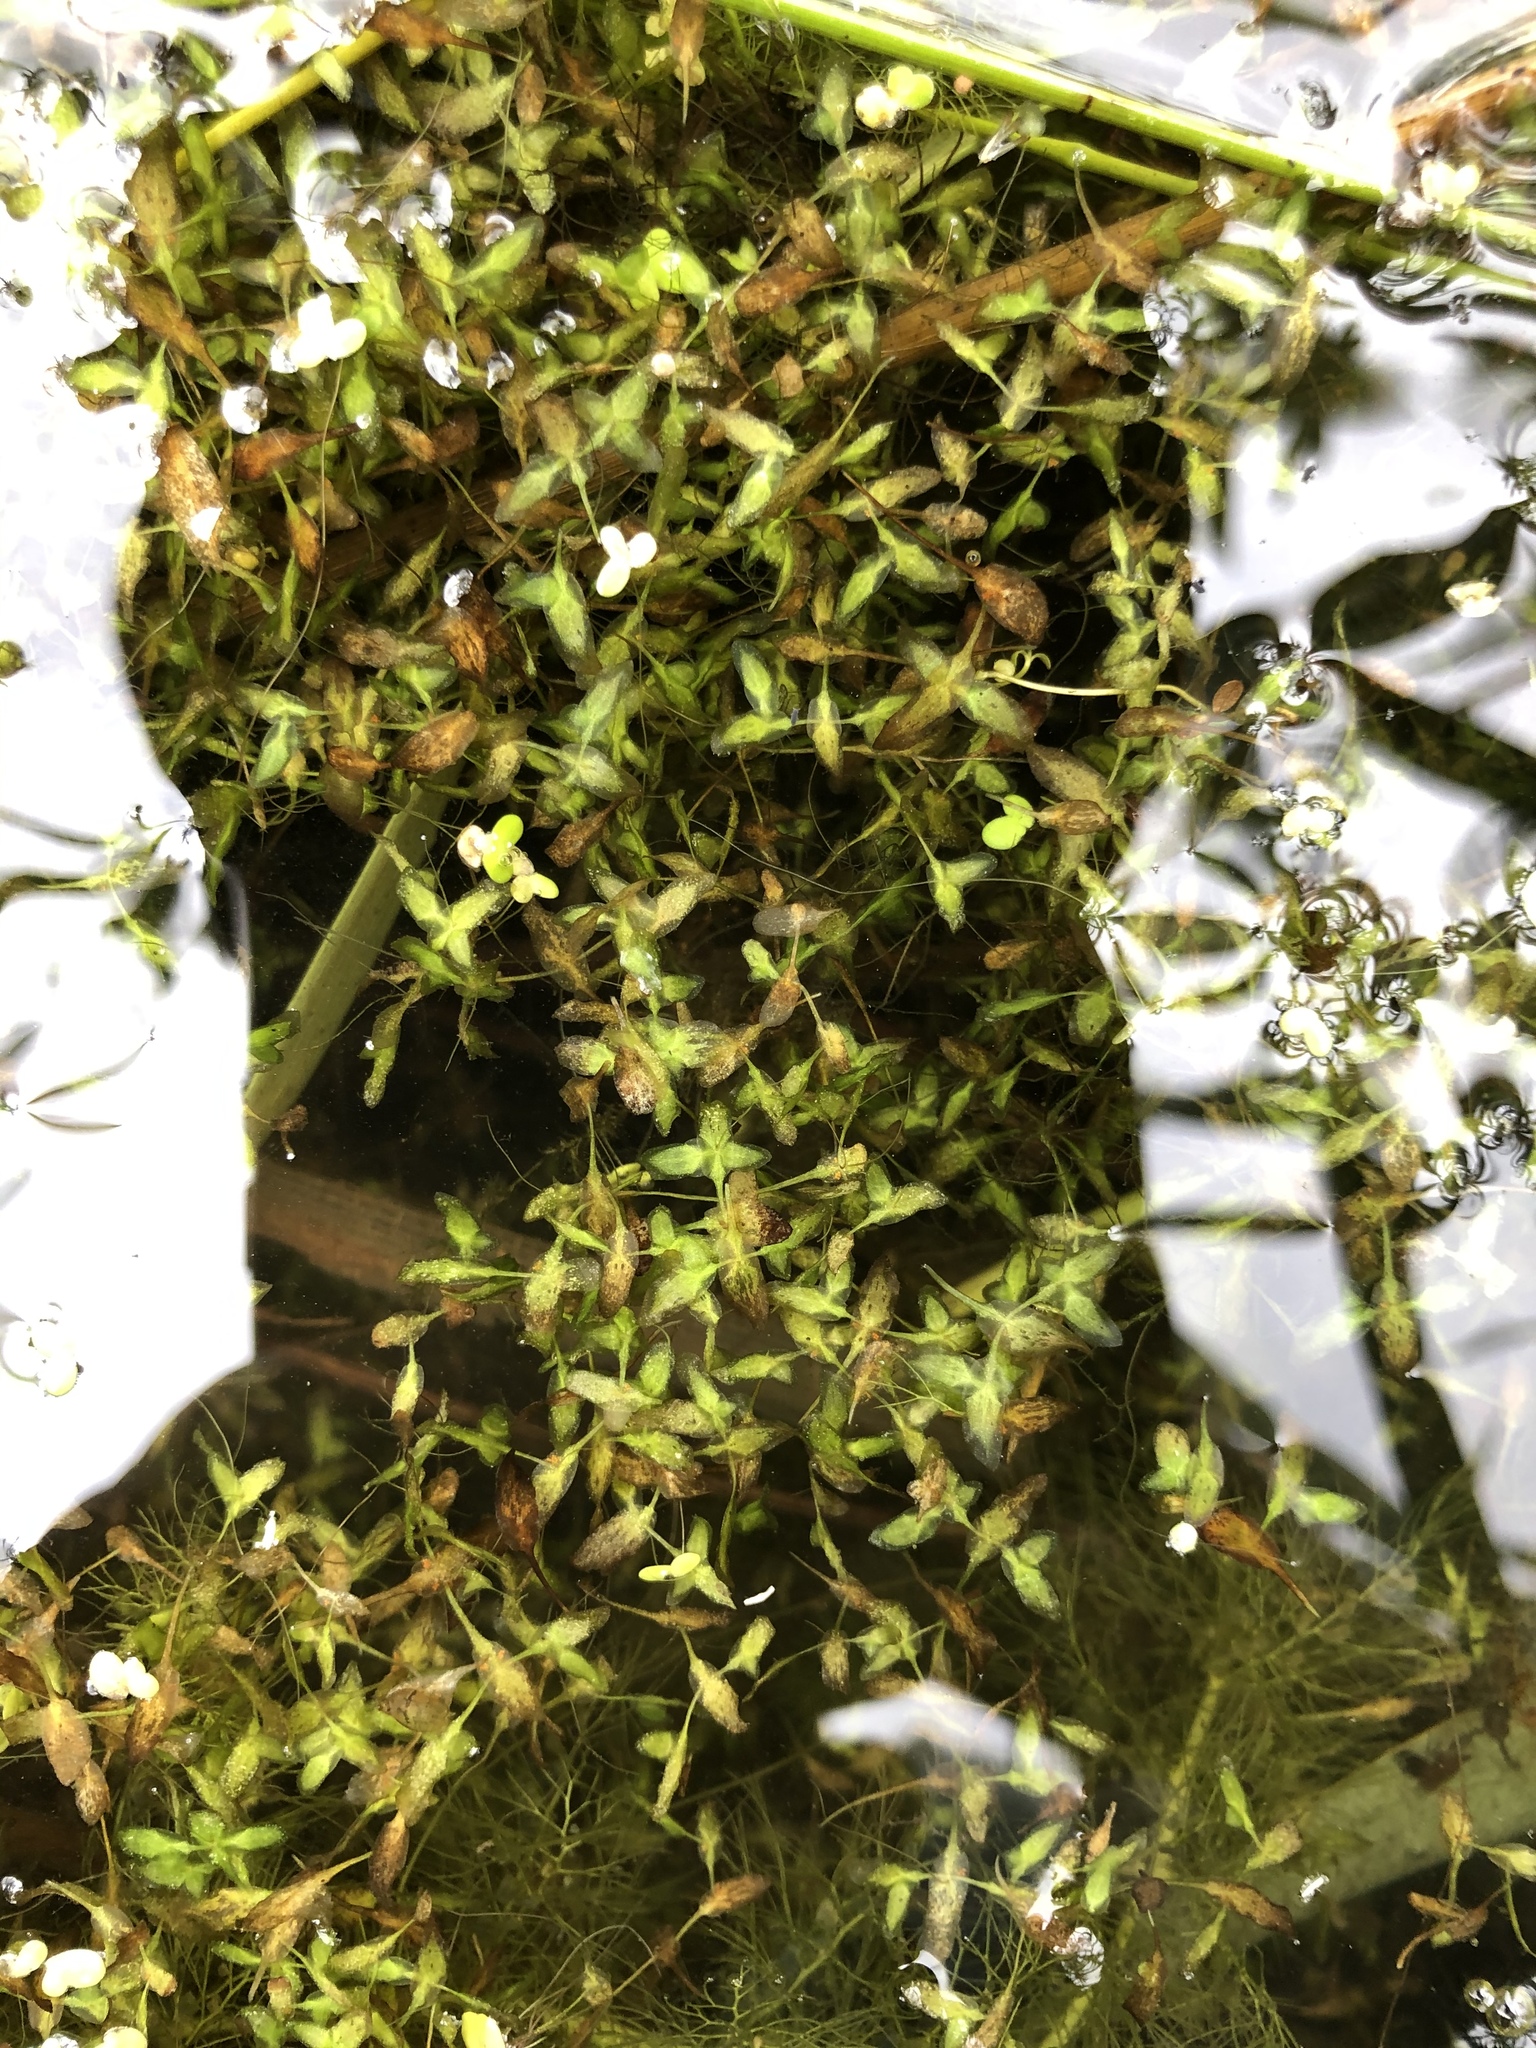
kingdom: Plantae
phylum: Tracheophyta
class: Liliopsida
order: Alismatales
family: Araceae
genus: Lemna
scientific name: Lemna trisulca
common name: Ivy-leaved duckweed
